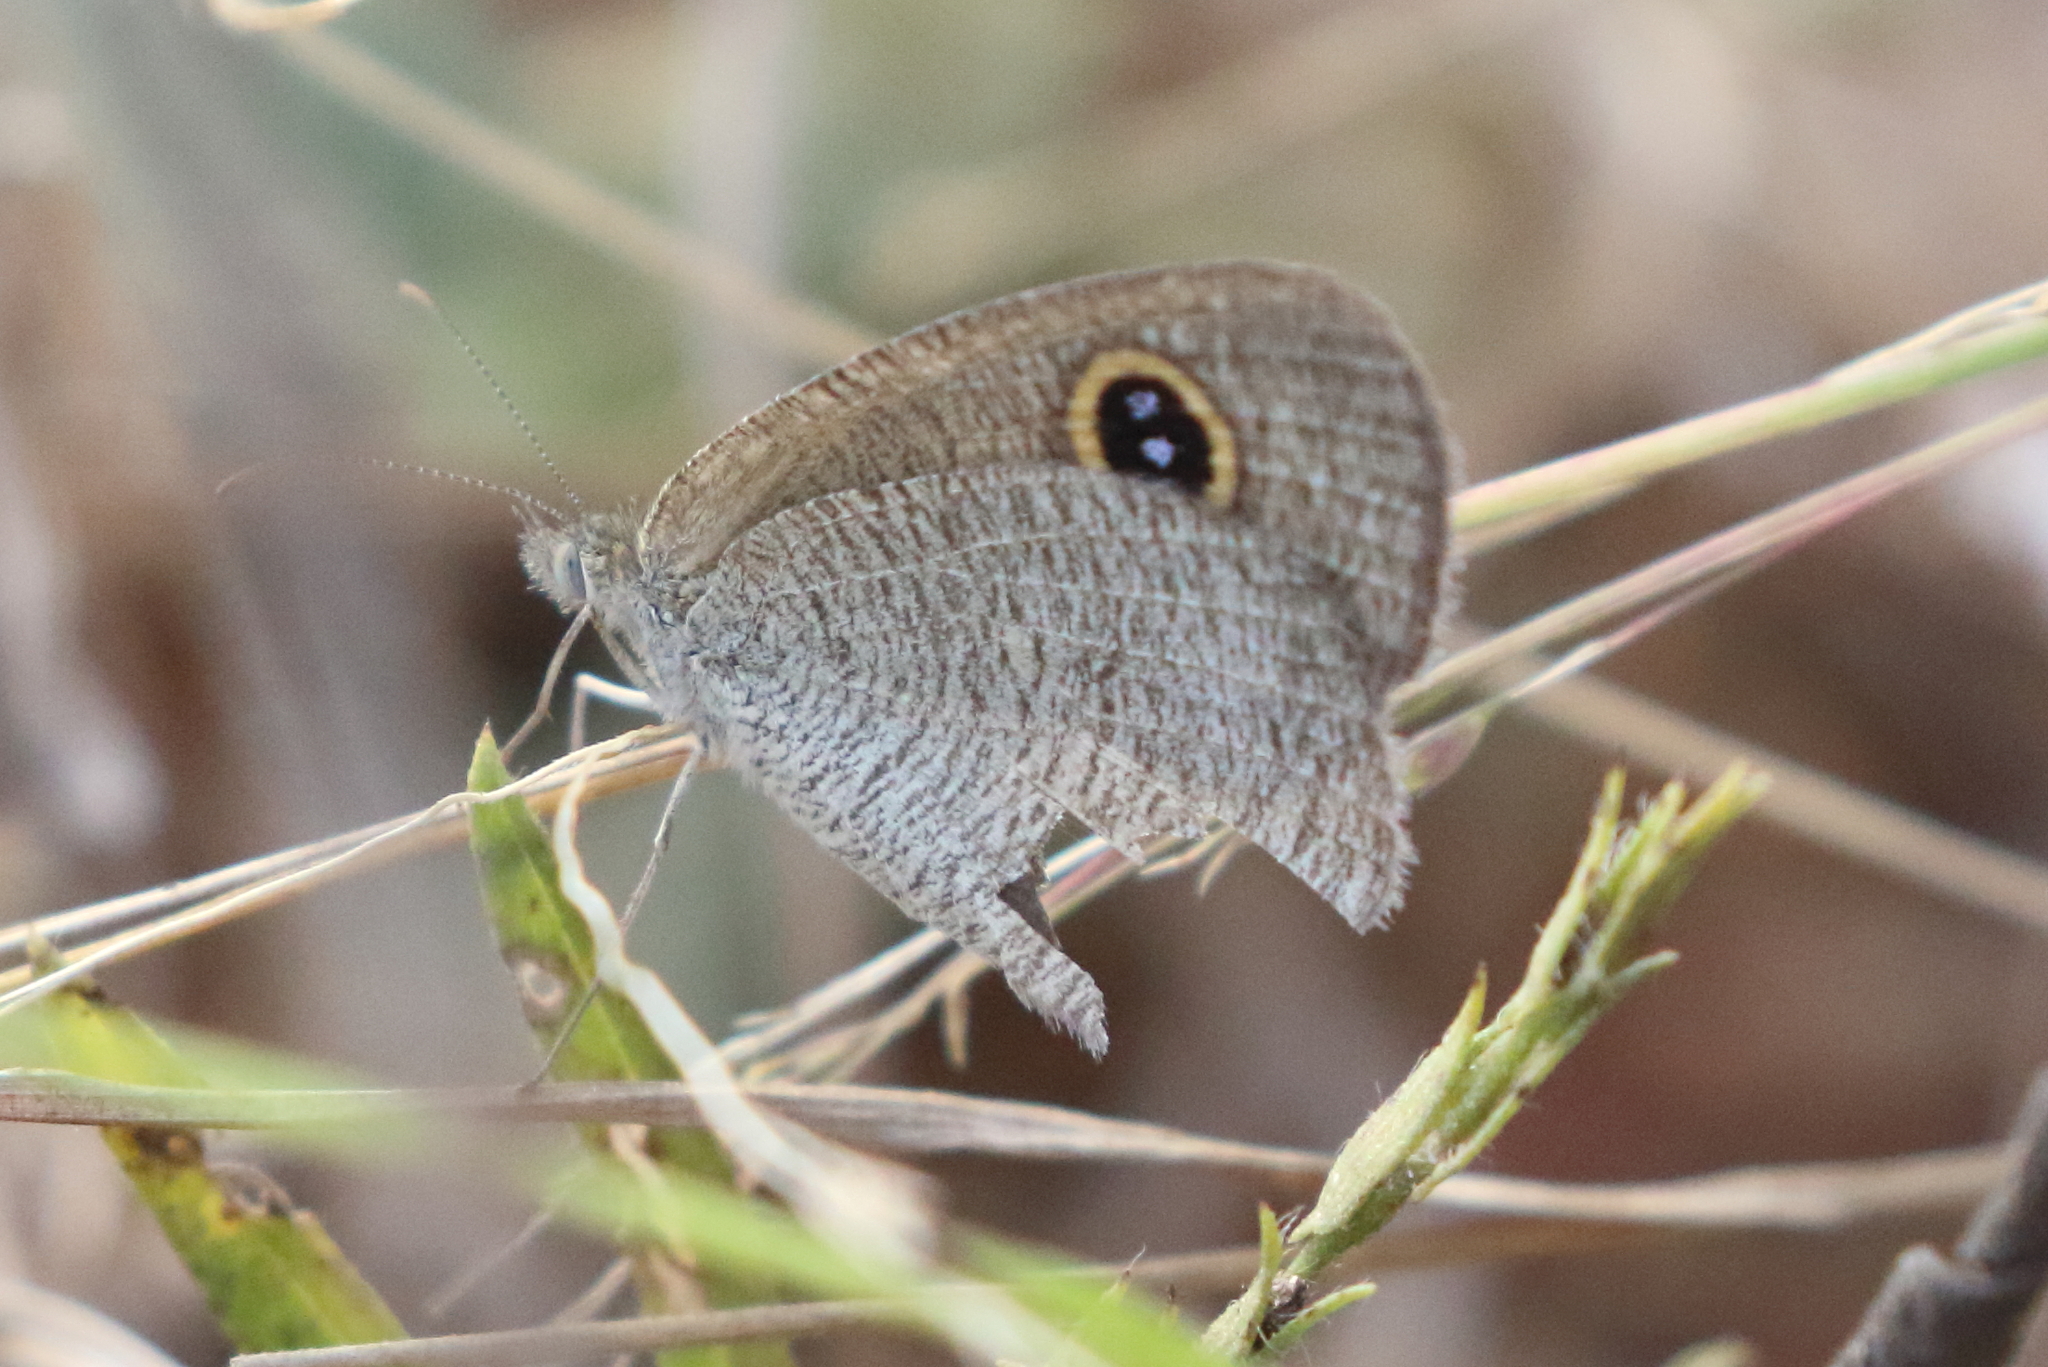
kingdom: Animalia
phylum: Arthropoda
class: Insecta
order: Lepidoptera
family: Nymphalidae
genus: Ypthima
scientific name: Ypthima arctous
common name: Dusky knight
